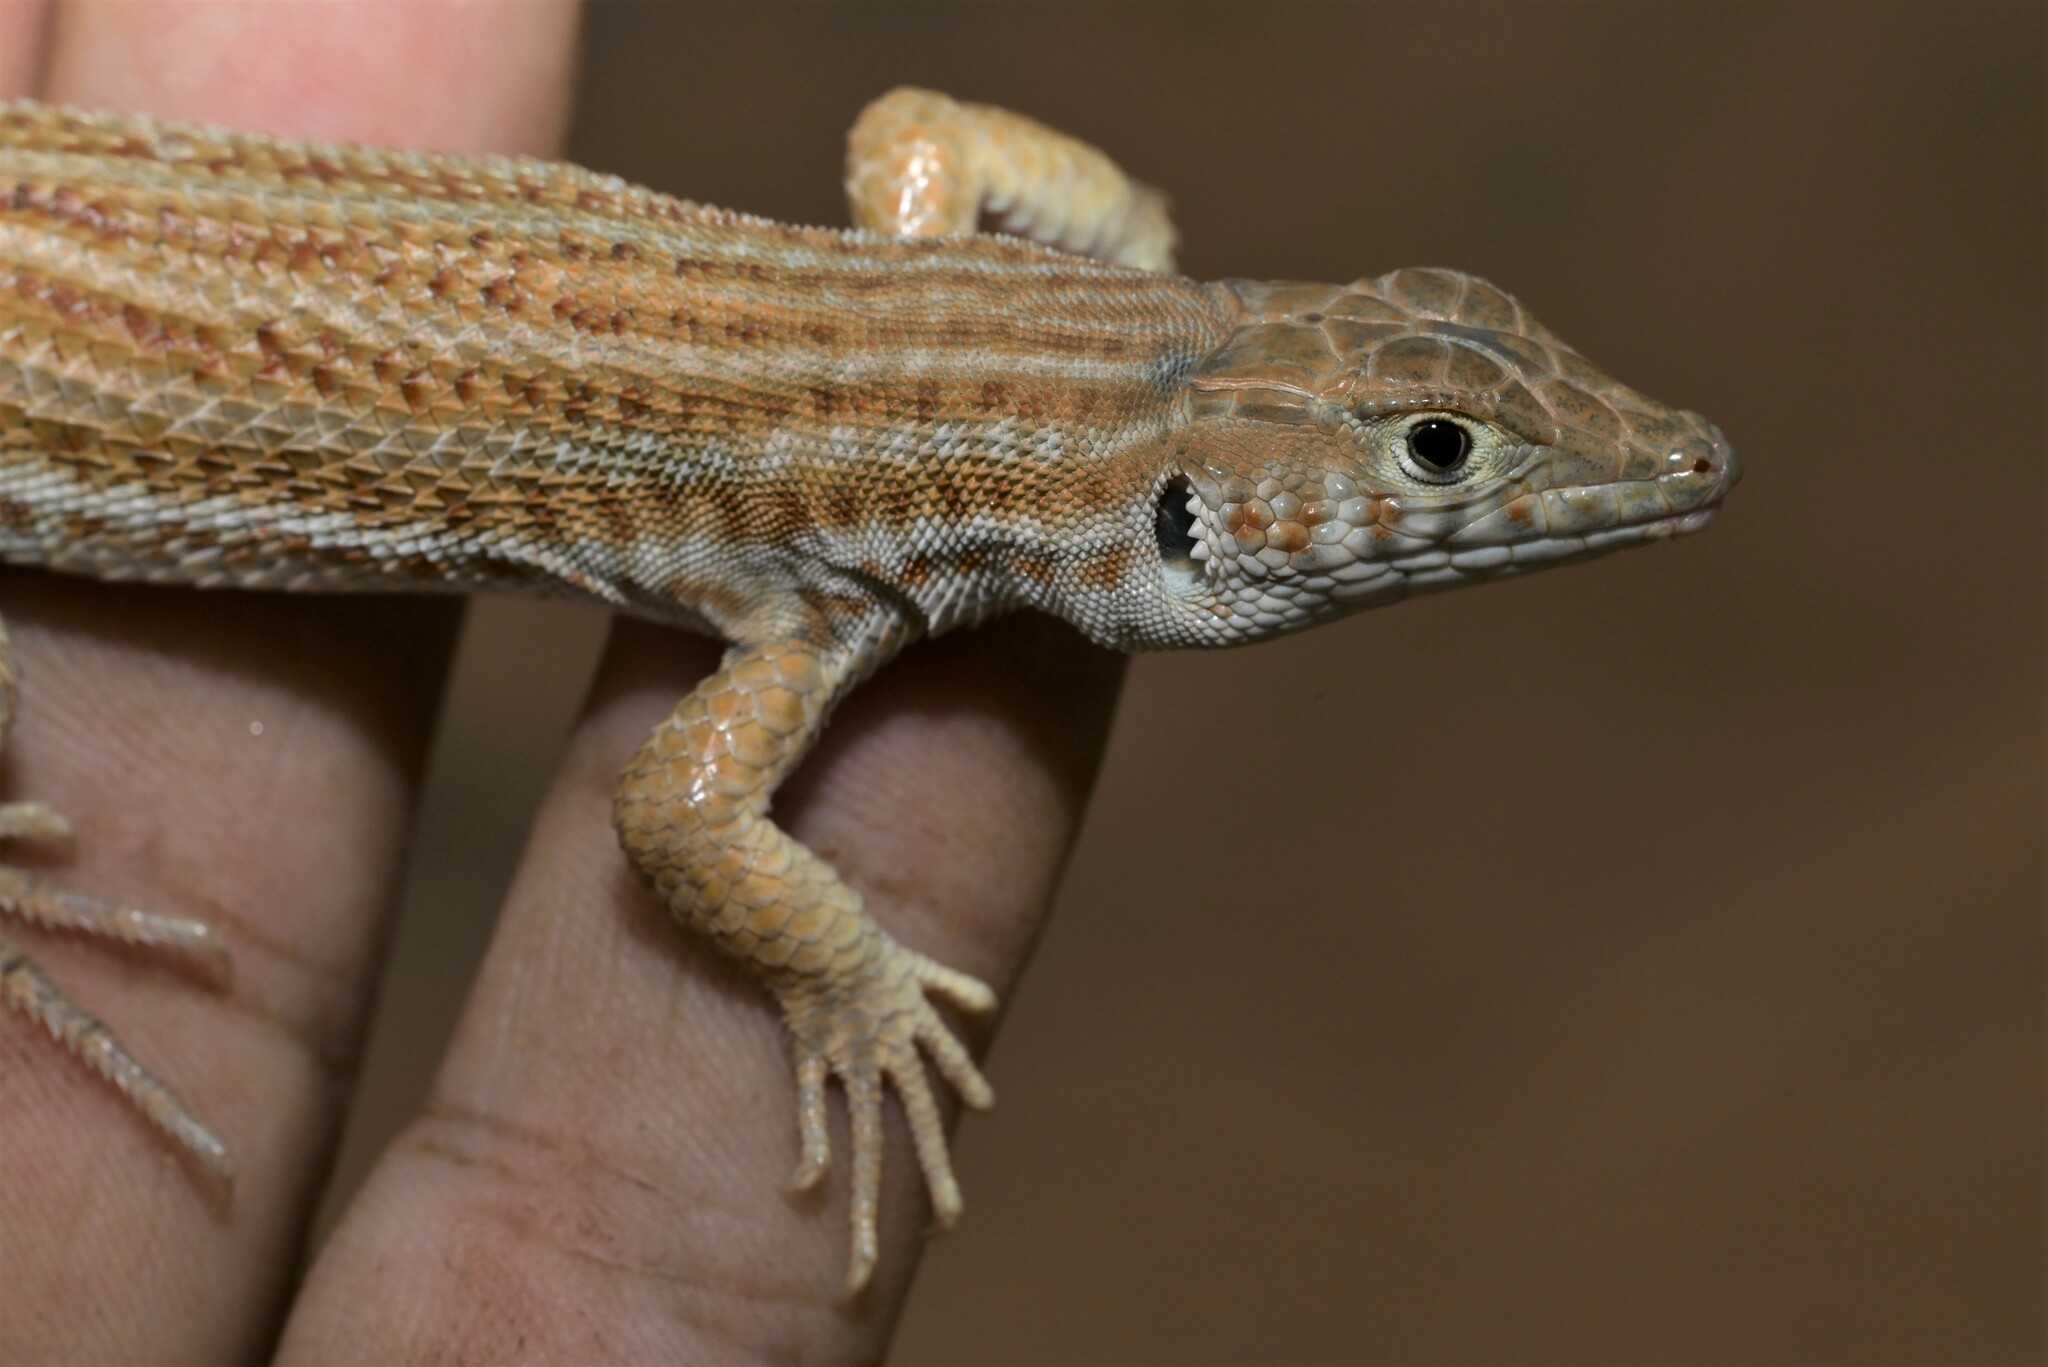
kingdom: Animalia
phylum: Chordata
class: Squamata
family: Lacertidae
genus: Acanthodactylus
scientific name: Acanthodactylus boskianus
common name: Bosc’s fringe-toed lizard
